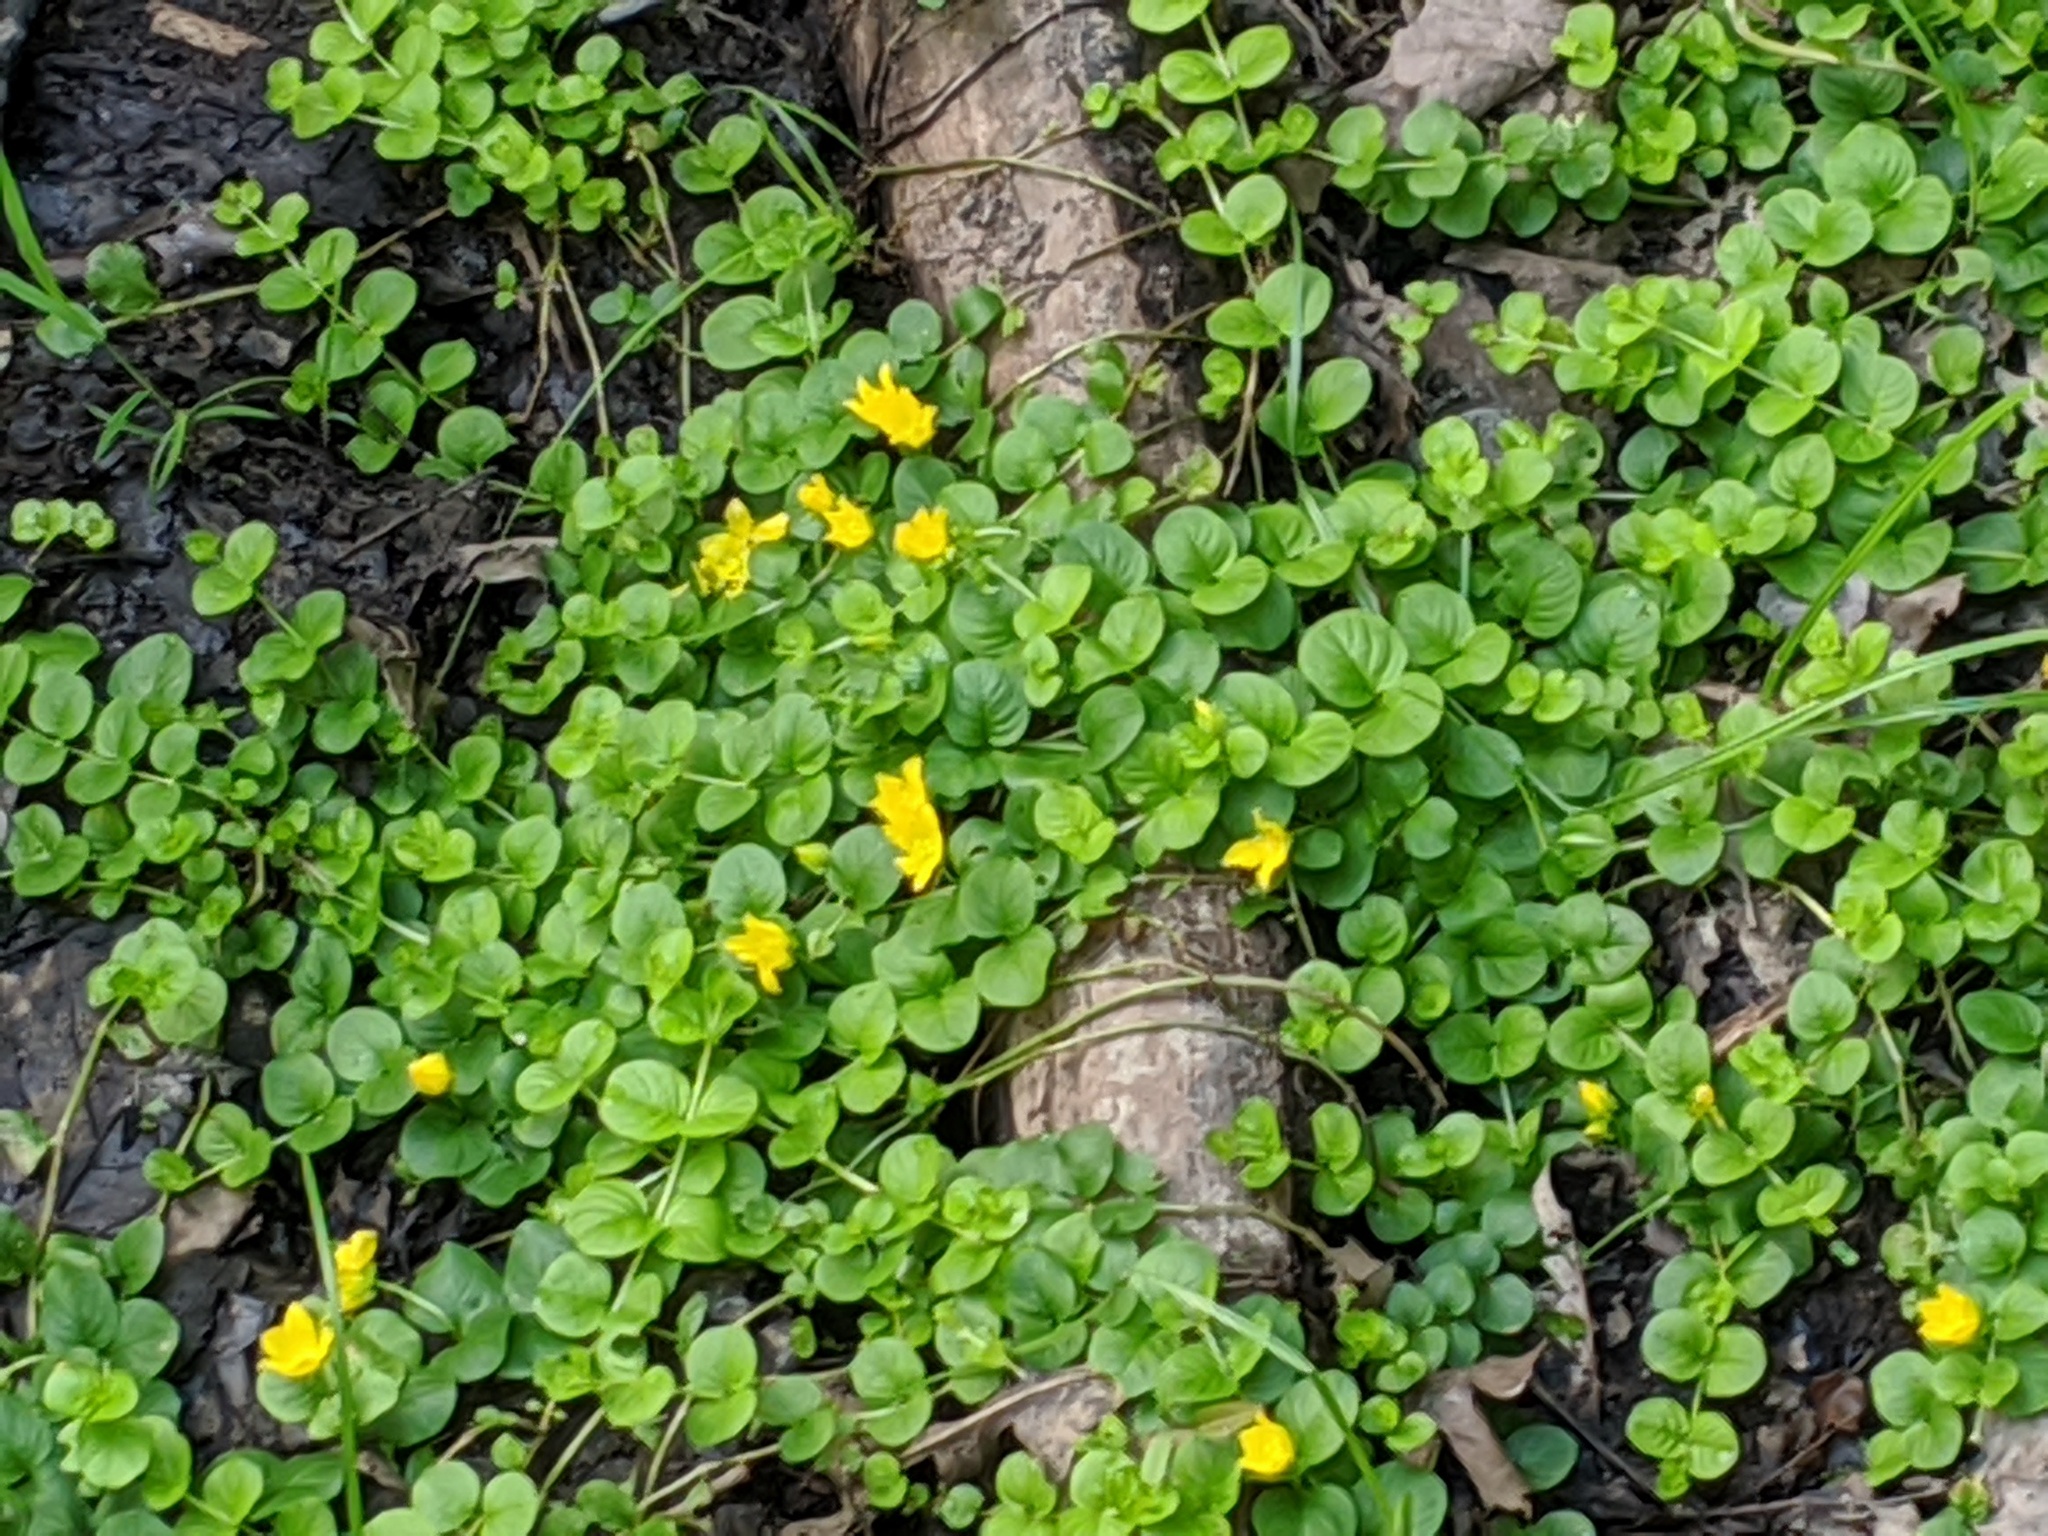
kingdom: Plantae
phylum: Tracheophyta
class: Magnoliopsida
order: Ericales
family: Primulaceae
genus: Lysimachia
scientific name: Lysimachia nummularia
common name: Moneywort
